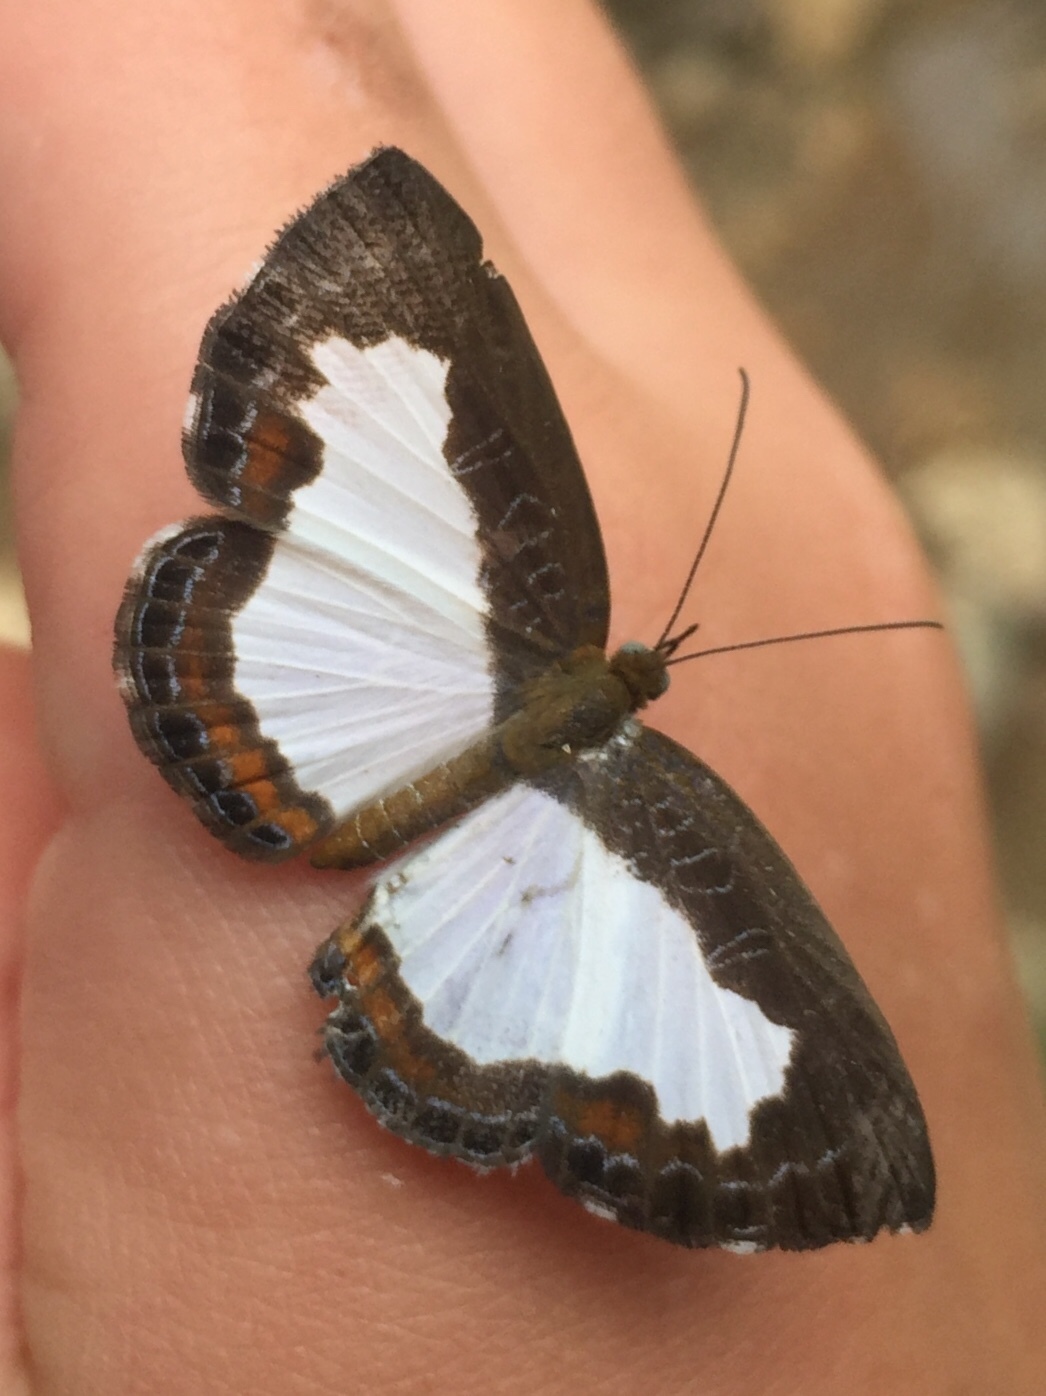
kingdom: Animalia
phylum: Arthropoda
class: Insecta
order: Lepidoptera
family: Riodinidae
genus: Juditha
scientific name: Juditha caucana
